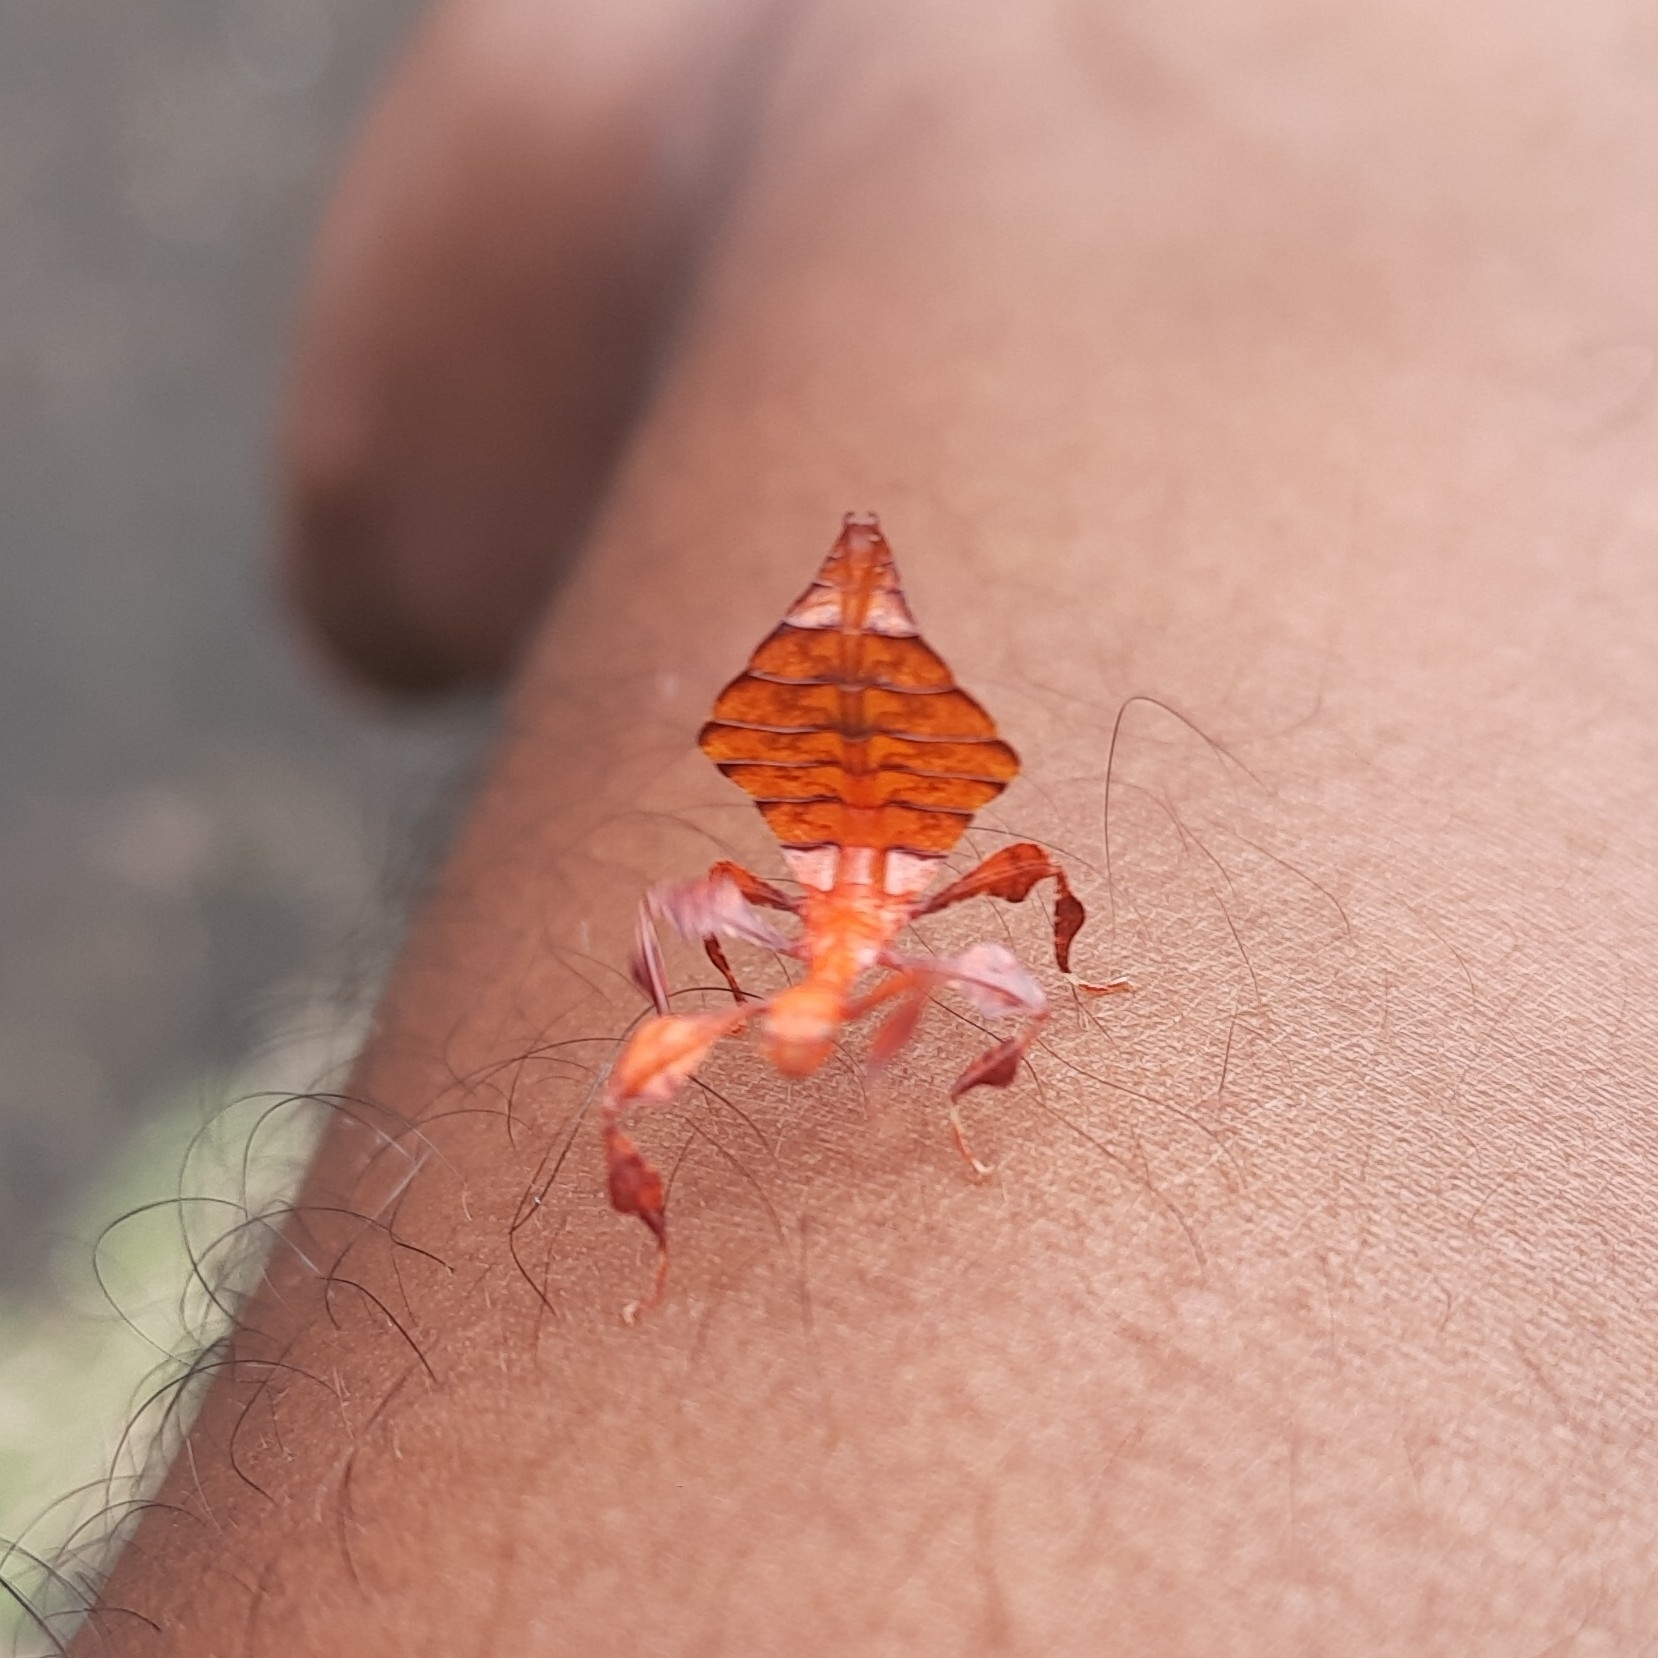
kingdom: Animalia
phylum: Arthropoda
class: Insecta
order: Phasmida
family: Phylliidae
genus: Pulchriphyllium
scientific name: Pulchriphyllium anangu
